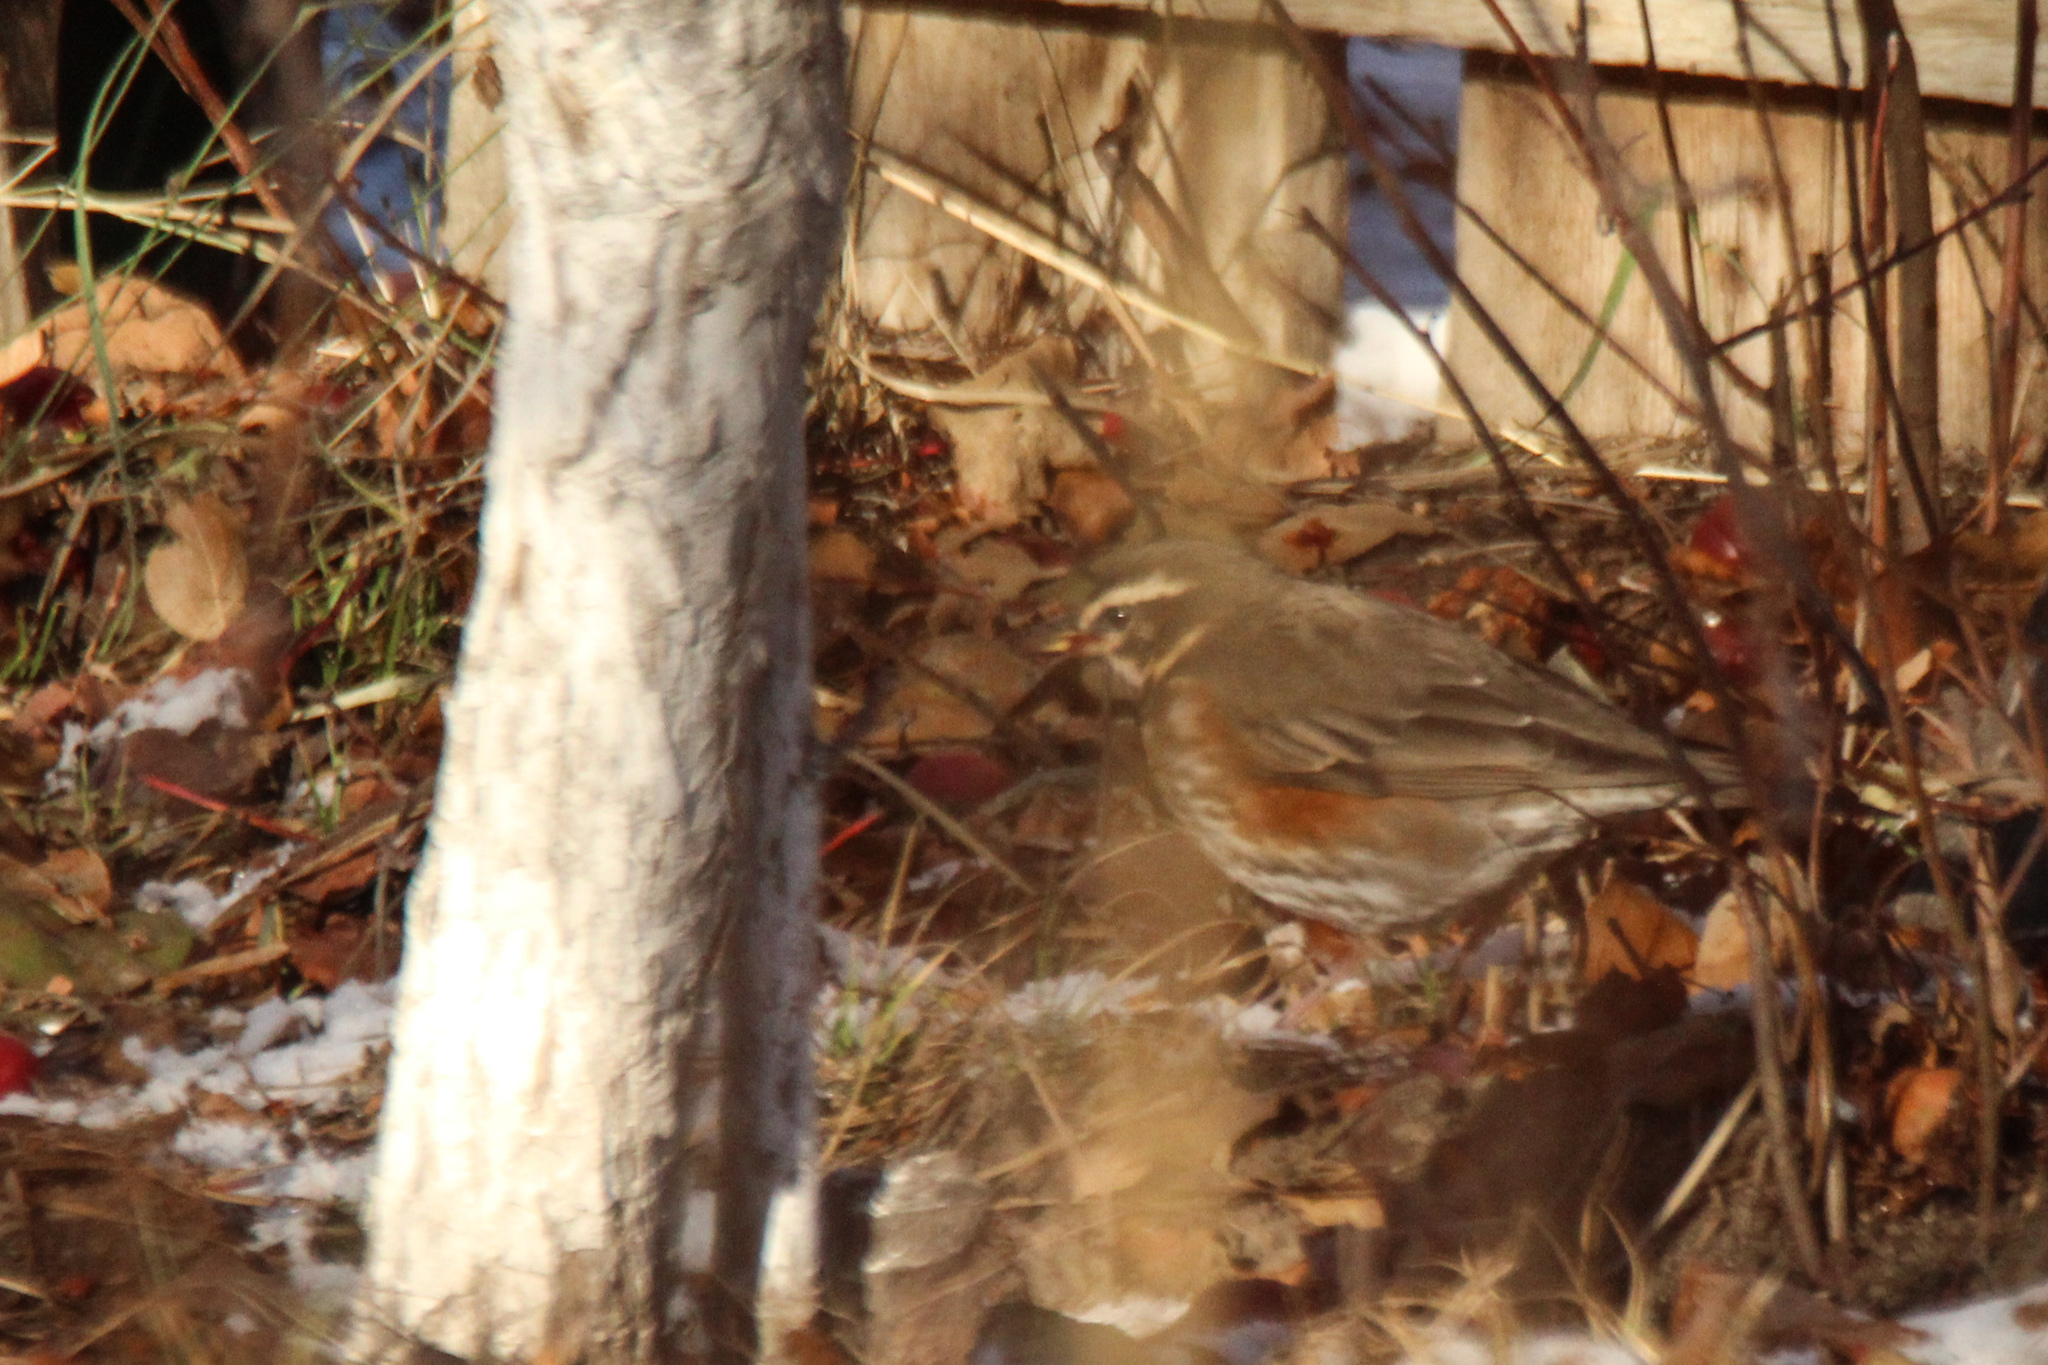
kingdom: Animalia
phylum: Chordata
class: Aves
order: Passeriformes
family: Turdidae
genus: Turdus
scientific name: Turdus iliacus
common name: Redwing
